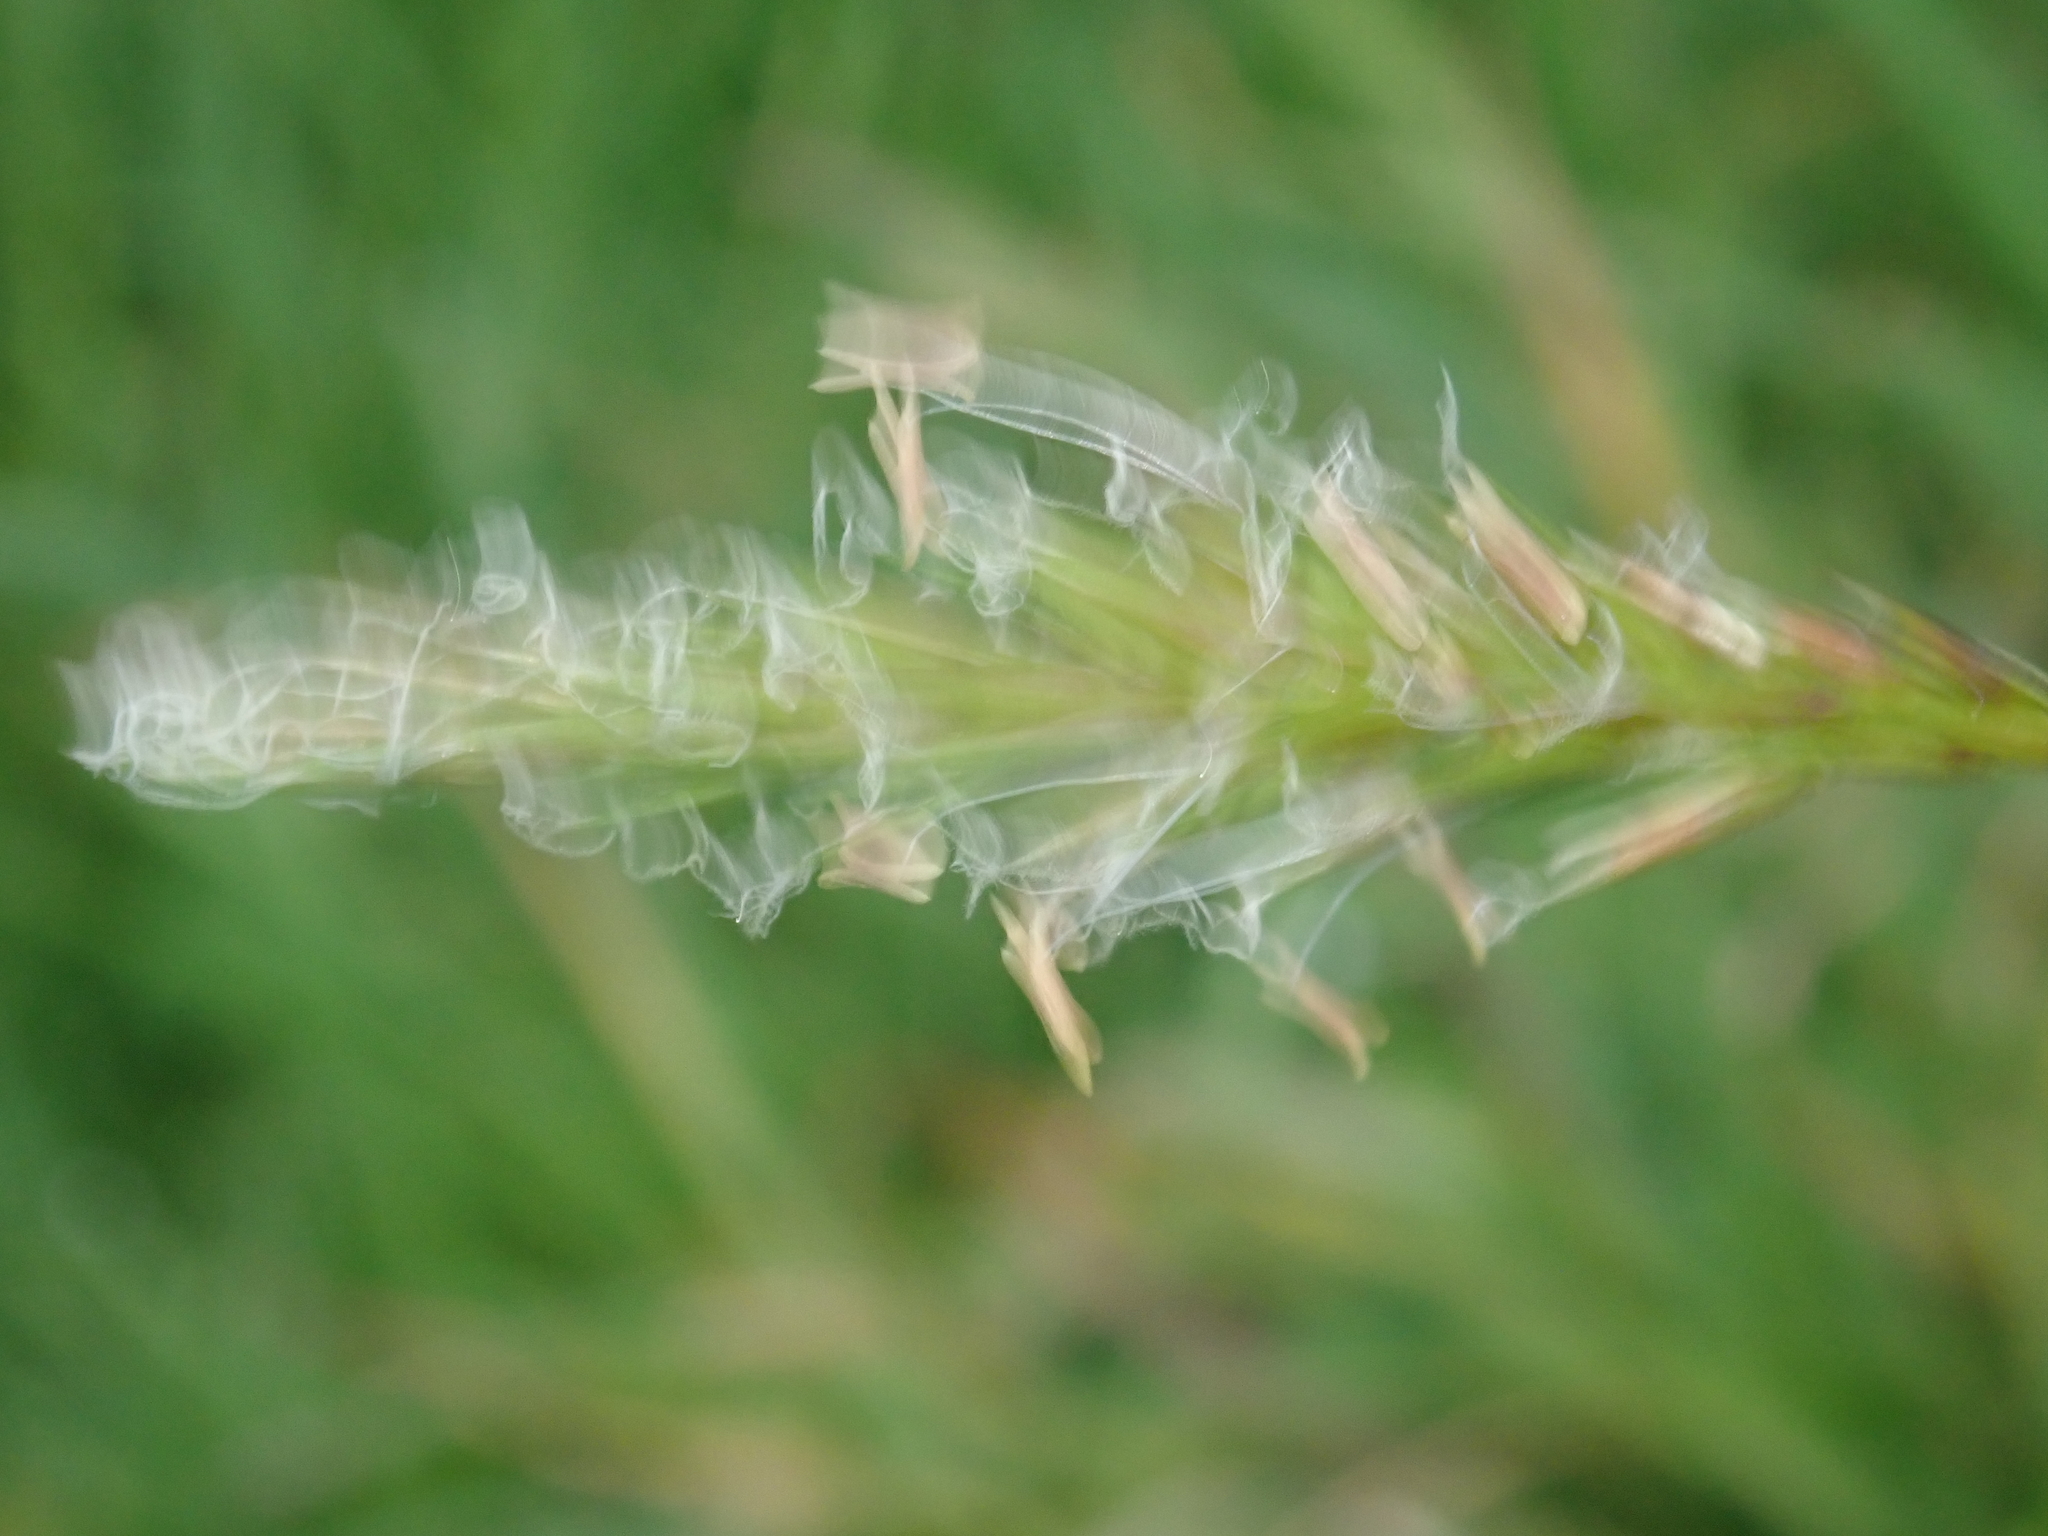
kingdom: Plantae
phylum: Tracheophyta
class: Liliopsida
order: Poales
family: Poaceae
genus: Anthoxanthum
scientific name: Anthoxanthum odoratum
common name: Sweet vernalgrass
